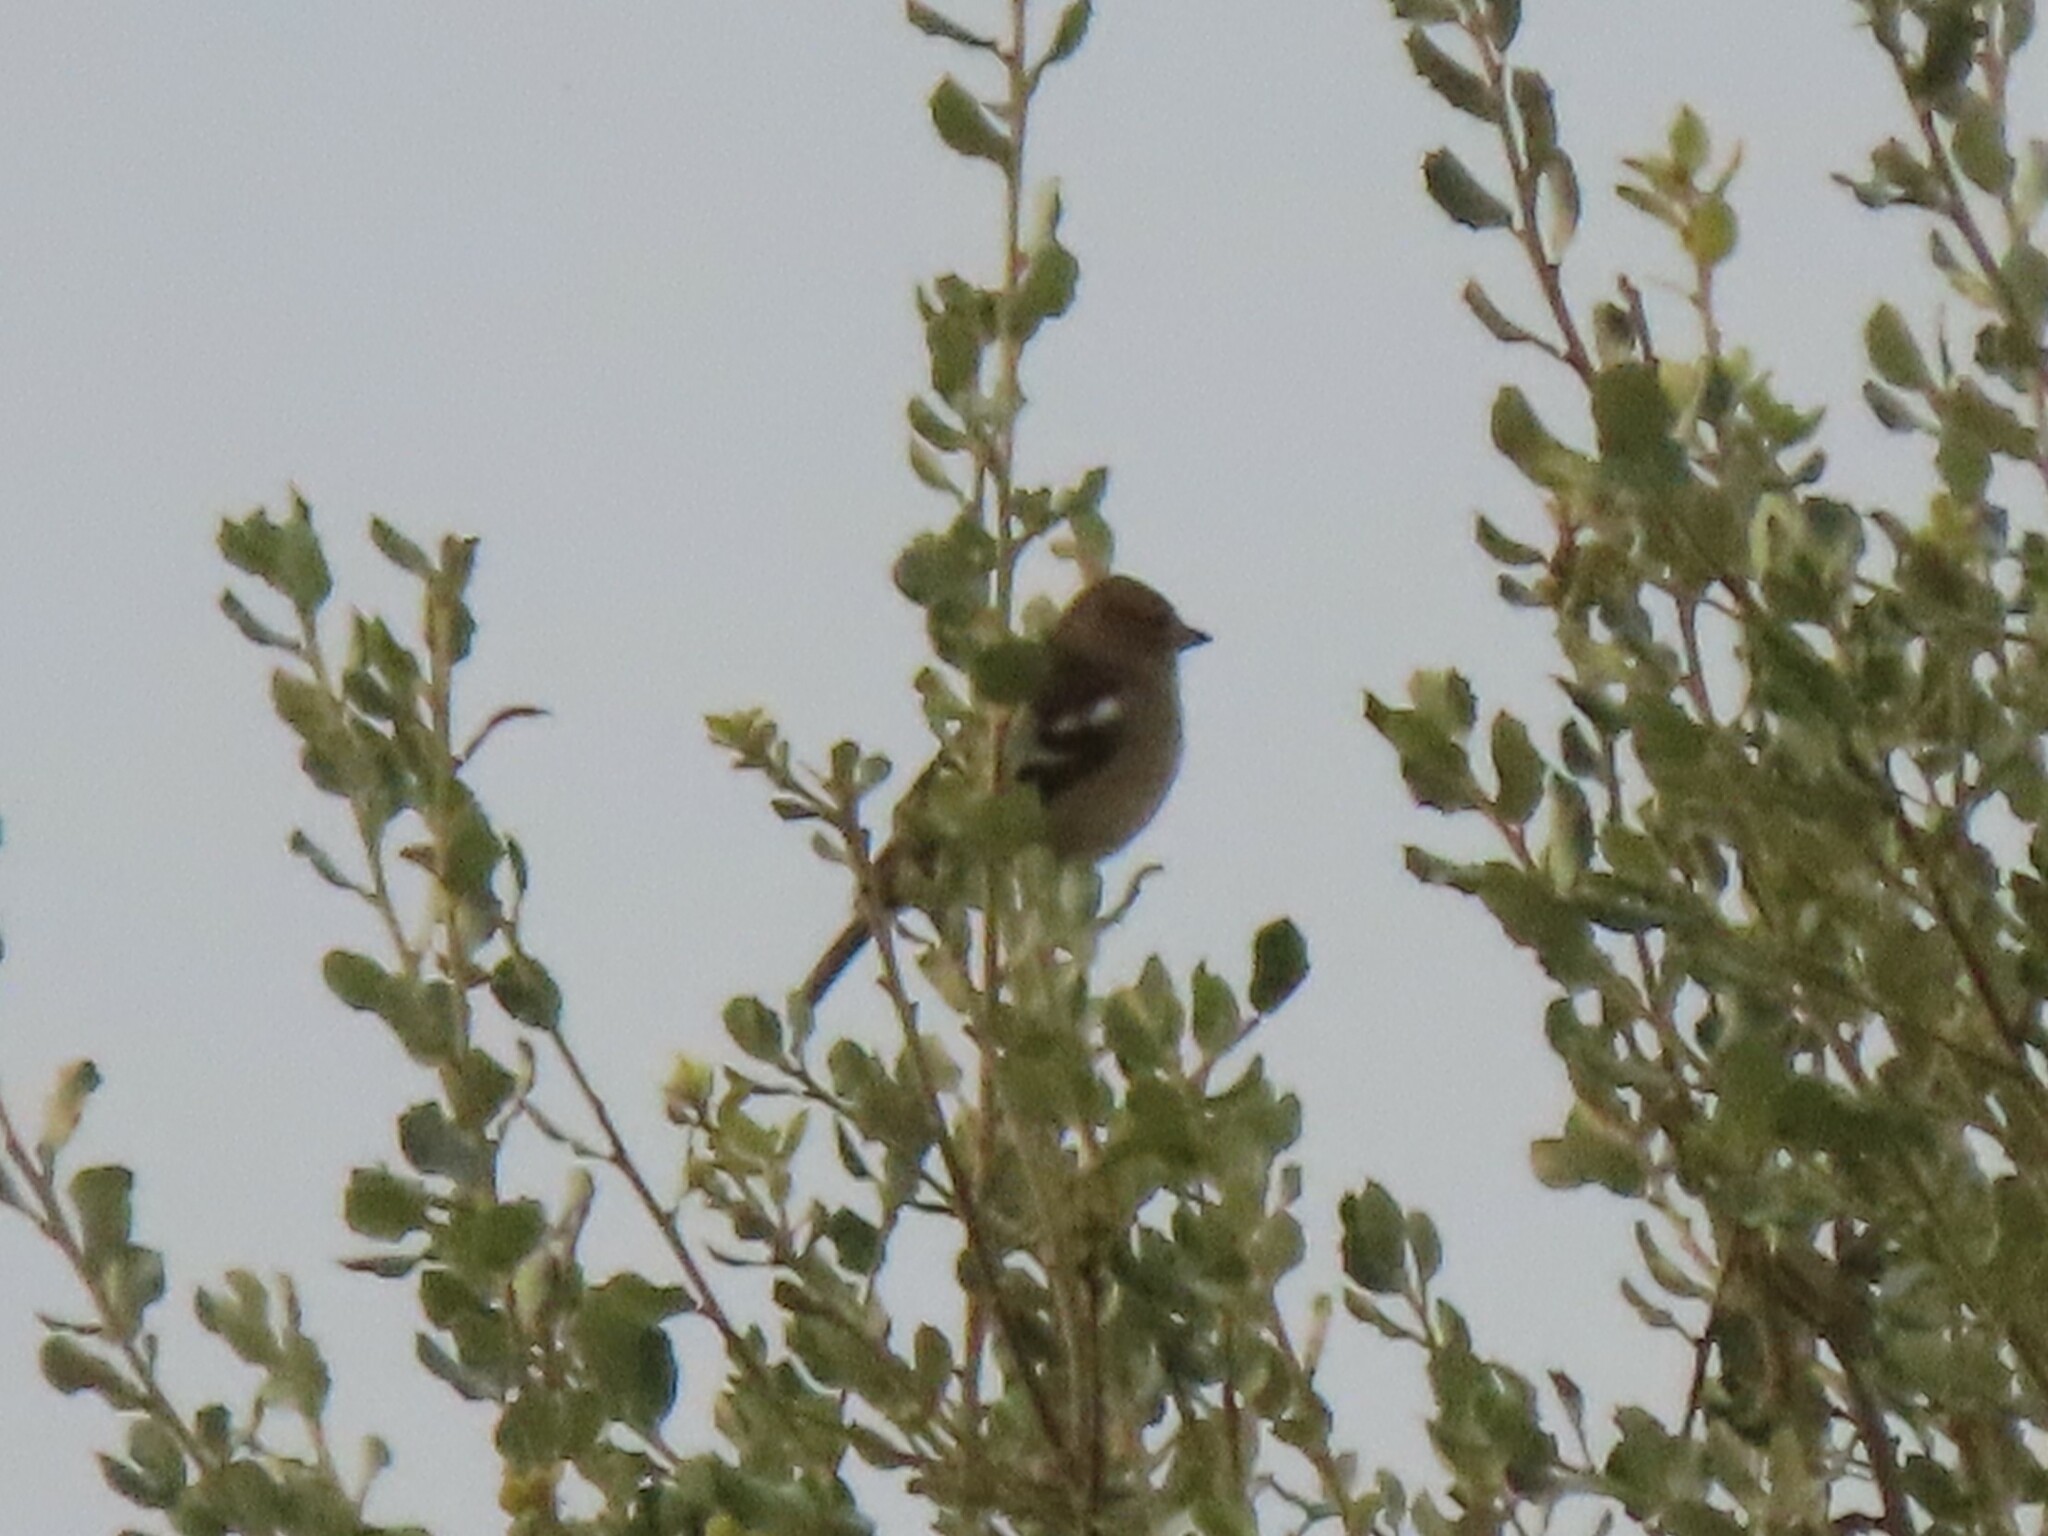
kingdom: Animalia
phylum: Chordata
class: Aves
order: Passeriformes
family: Fringillidae
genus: Fringilla
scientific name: Fringilla coelebs
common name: Common chaffinch
